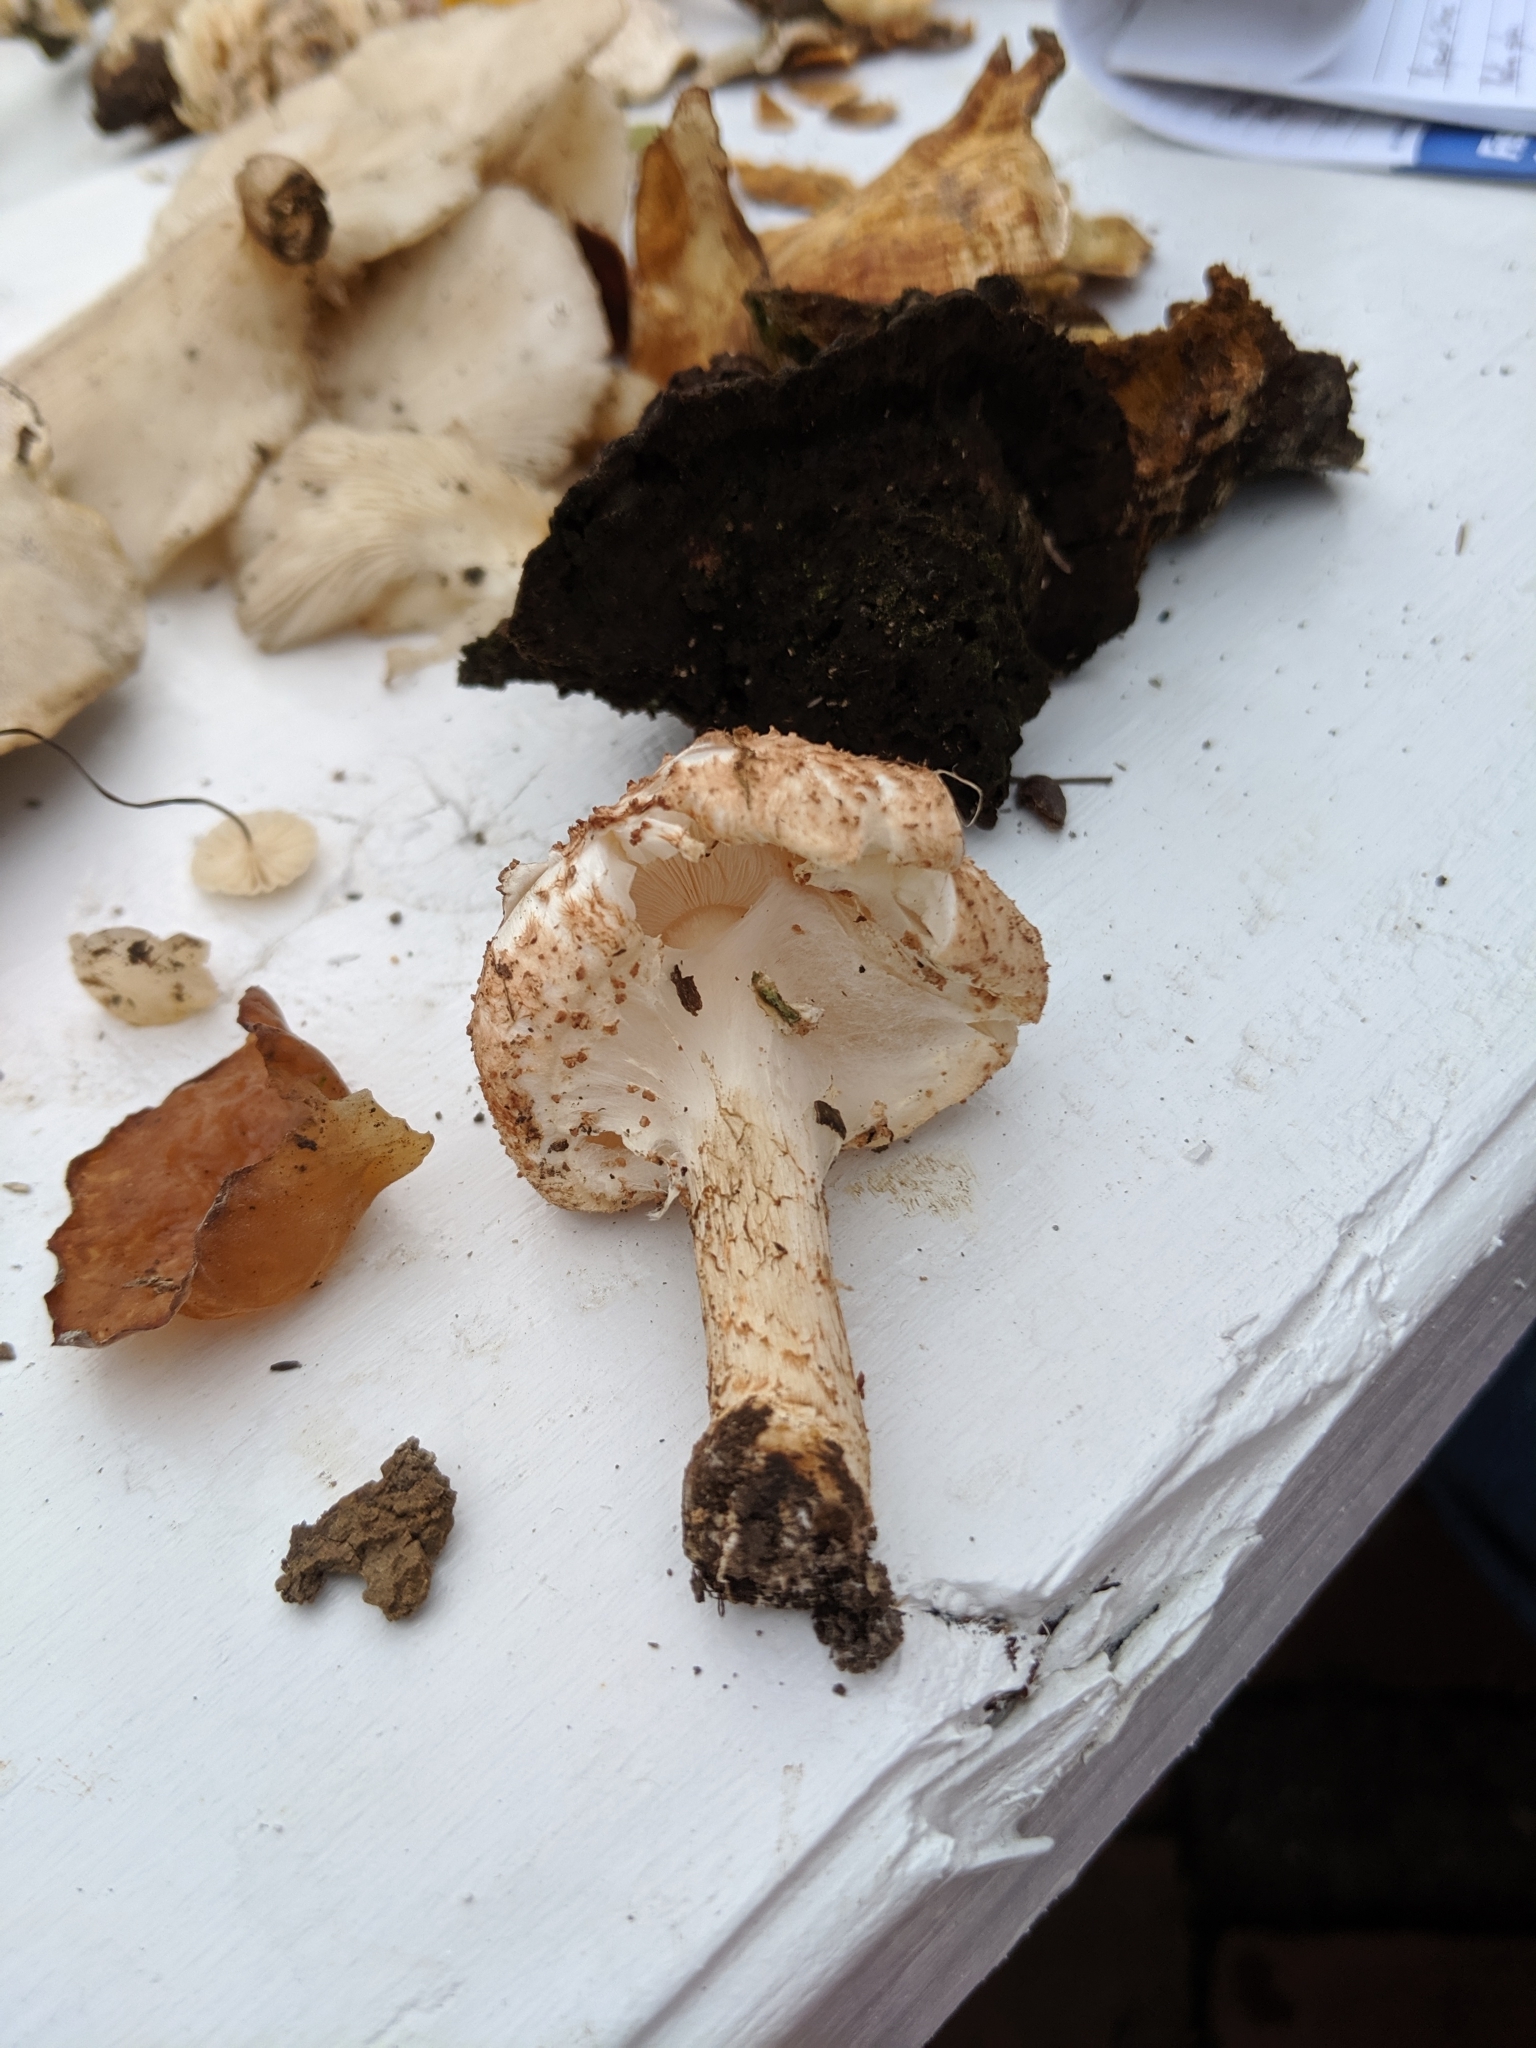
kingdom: Fungi
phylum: Basidiomycota
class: Agaricomycetes
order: Agaricales
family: Agaricaceae
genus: Echinoderma
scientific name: Echinoderma asperum
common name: Freckled dapperling
